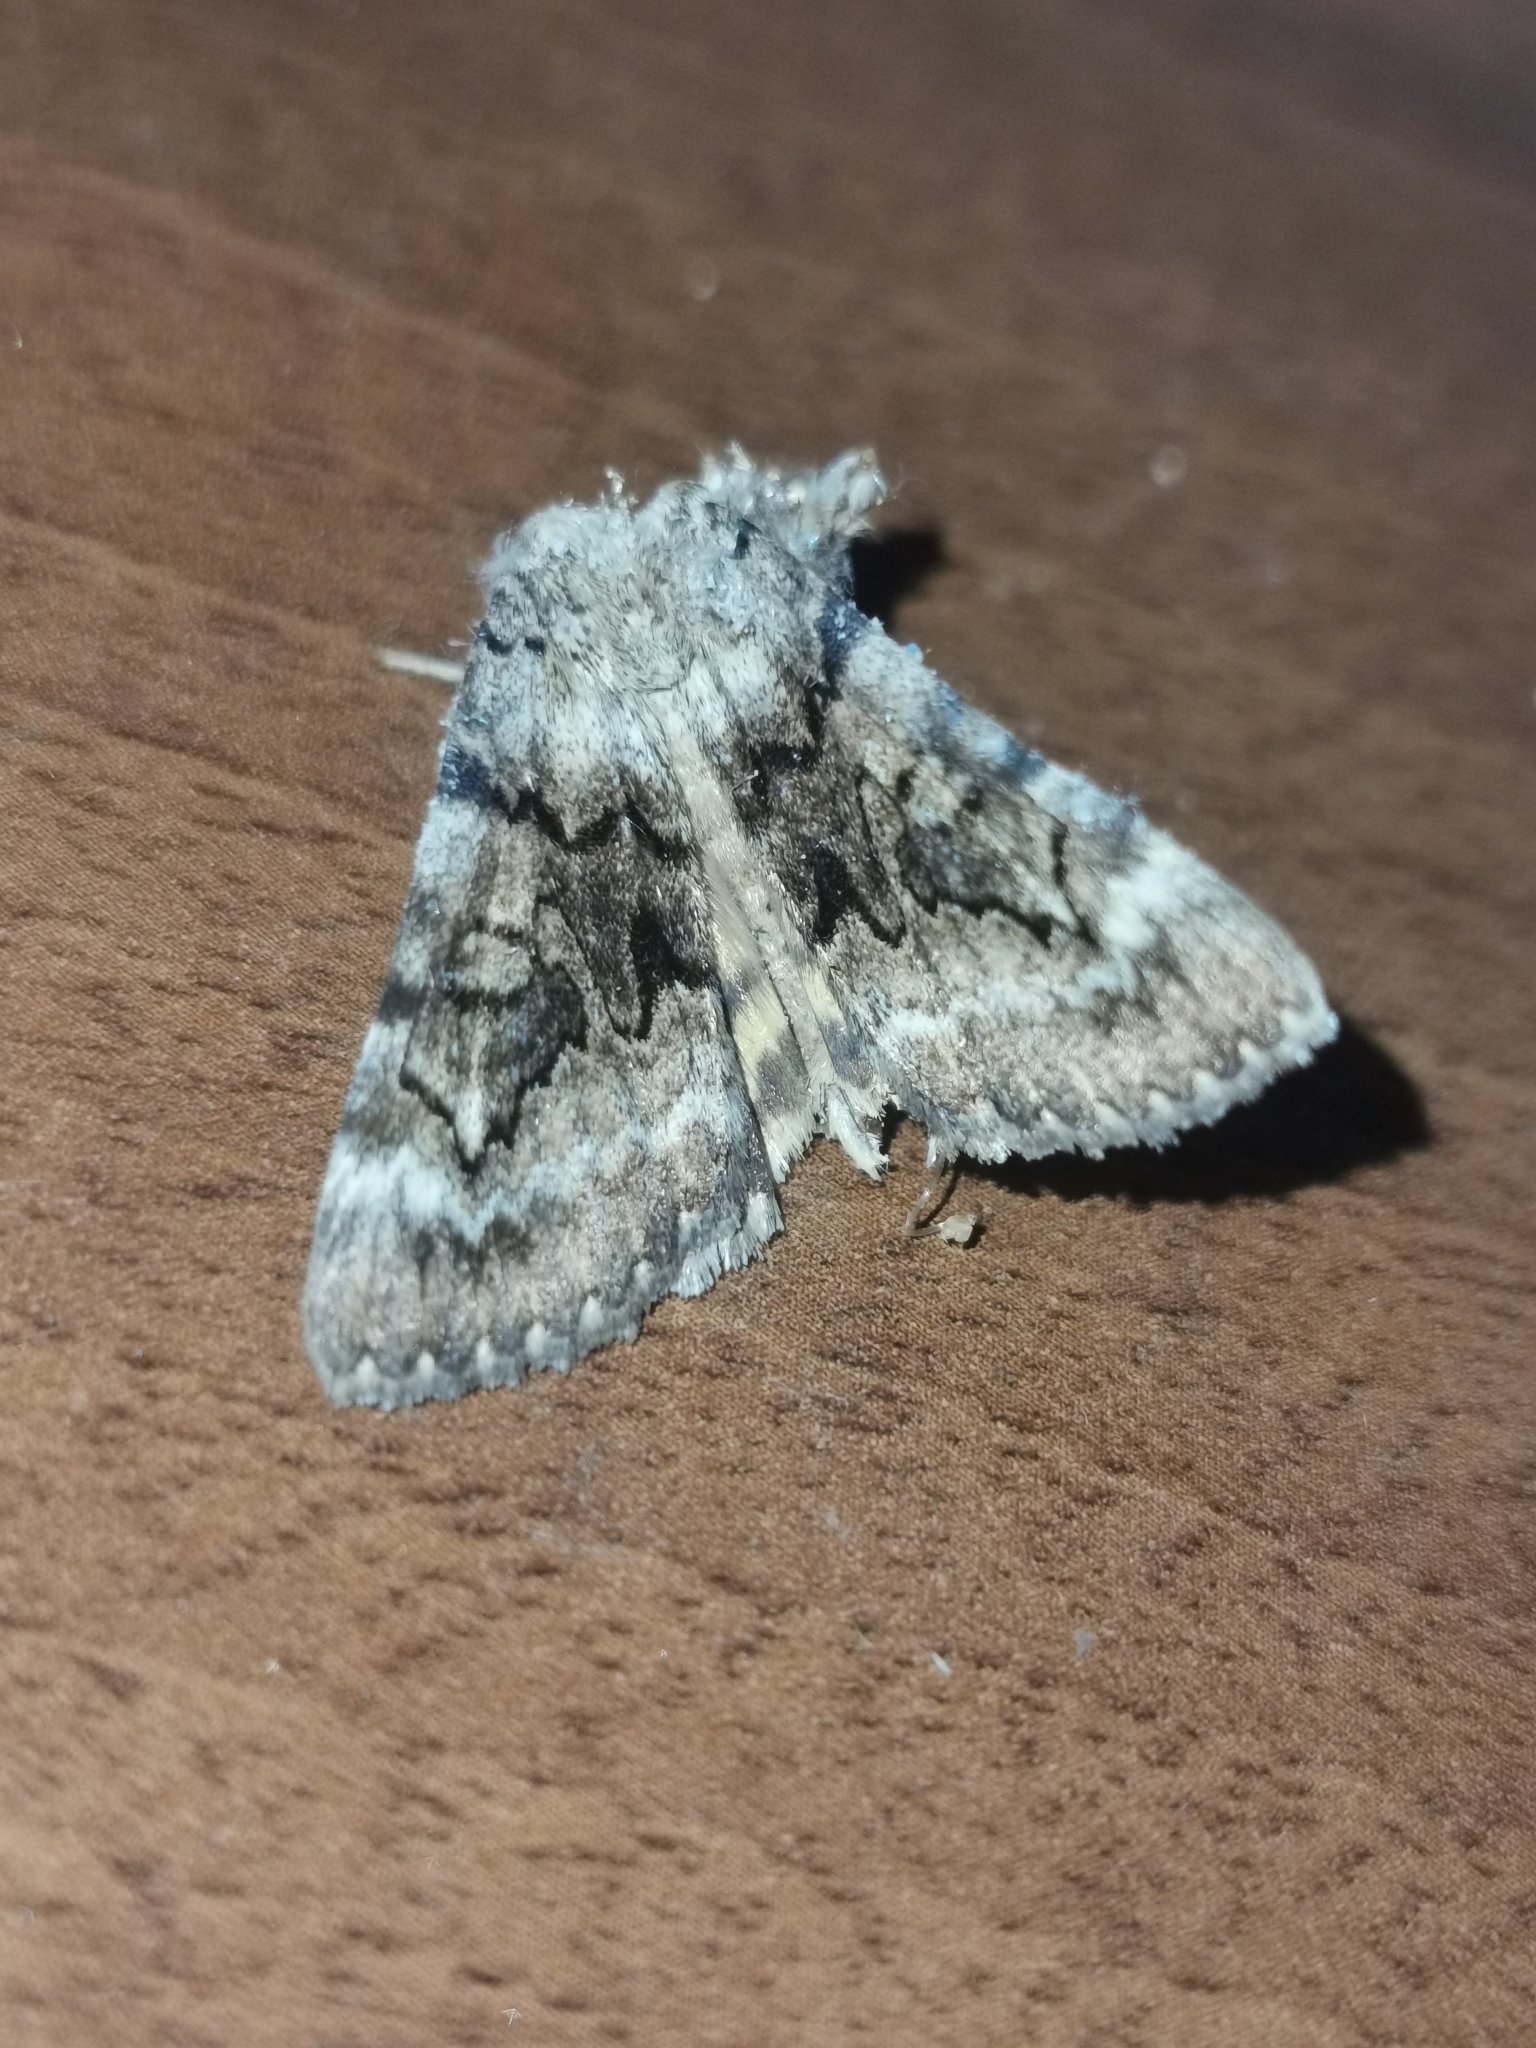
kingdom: Animalia
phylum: Arthropoda
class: Insecta
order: Lepidoptera
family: Erebidae
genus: Catocala
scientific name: Catocala nymphagoga
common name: Oak yellow underwing
